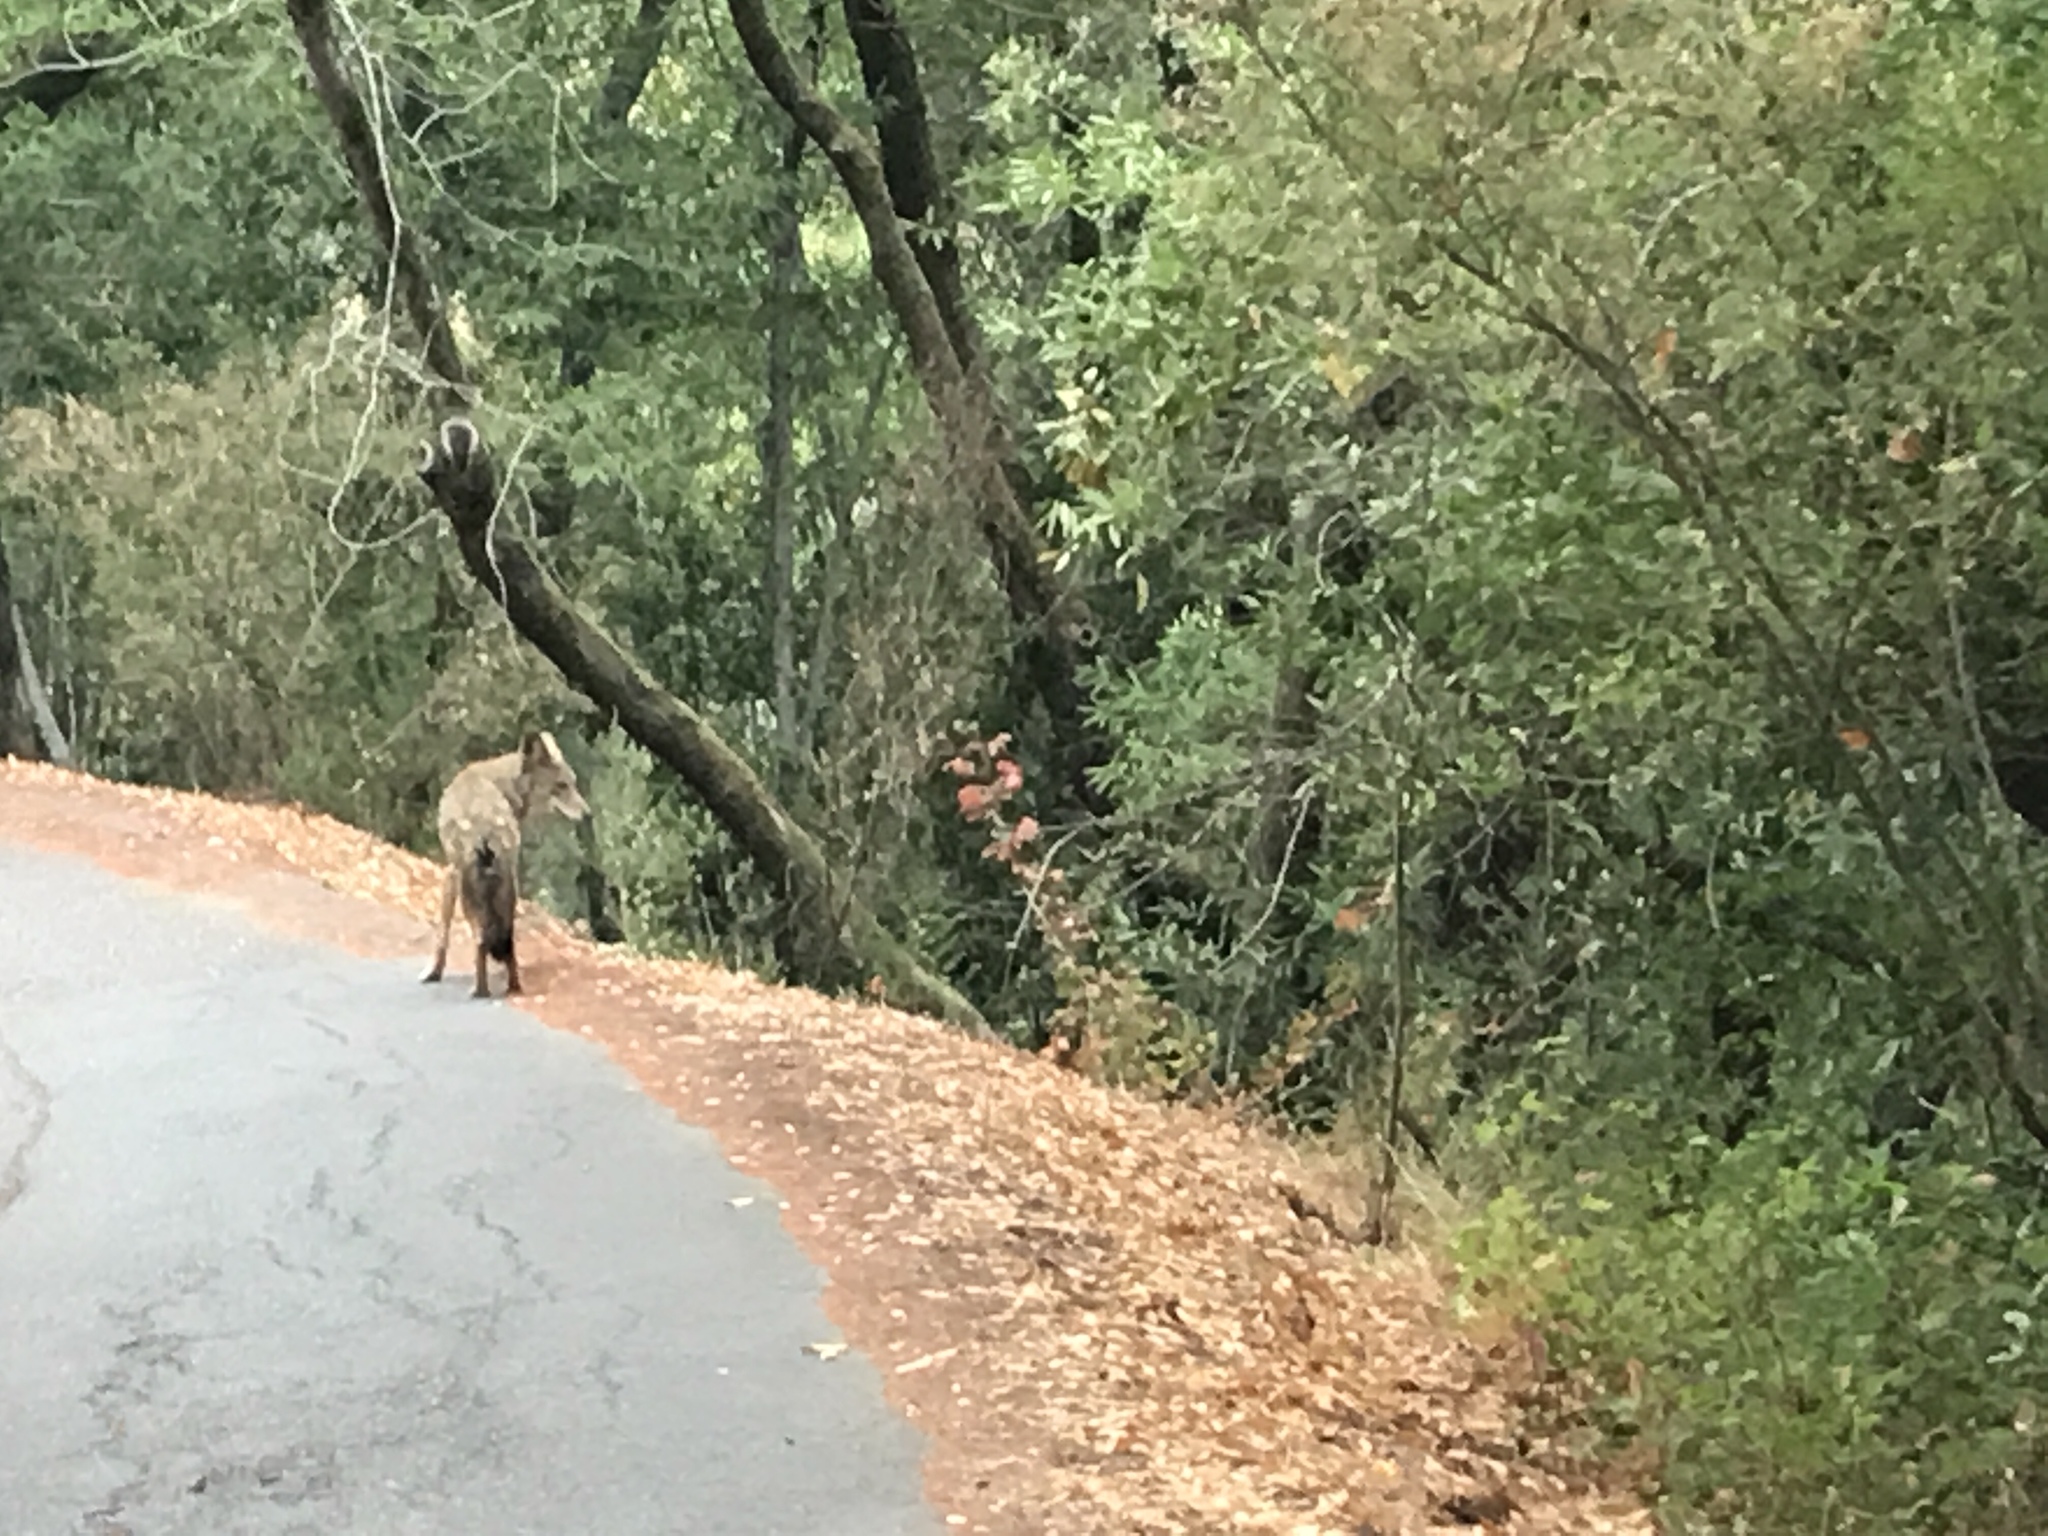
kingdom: Animalia
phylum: Chordata
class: Mammalia
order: Carnivora
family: Canidae
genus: Canis
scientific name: Canis latrans
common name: Coyote
